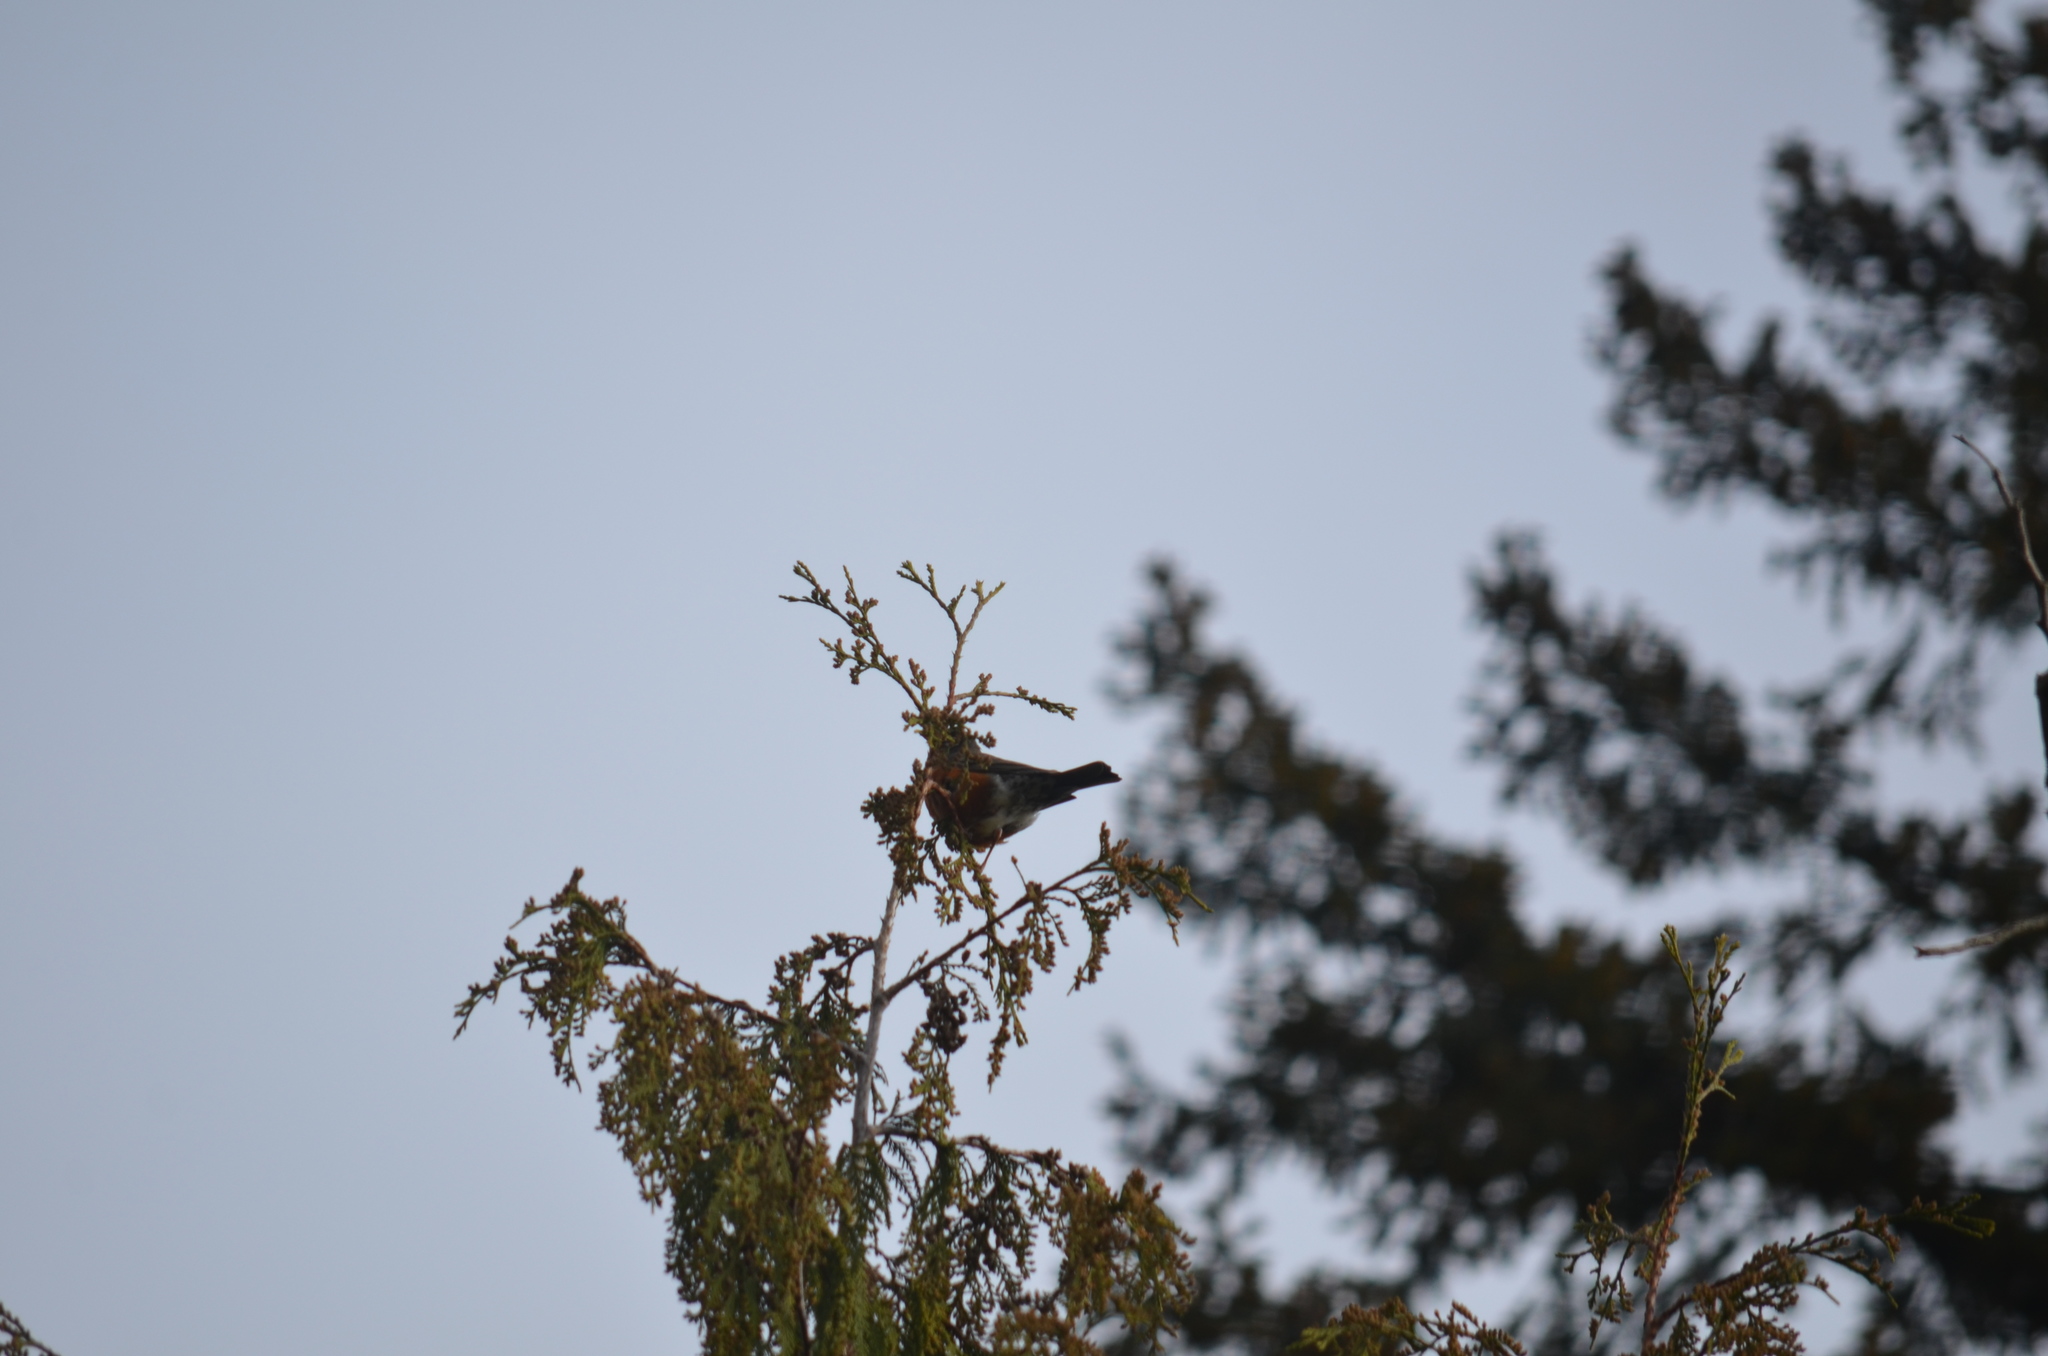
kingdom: Animalia
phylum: Chordata
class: Aves
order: Passeriformes
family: Turdidae
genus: Turdus
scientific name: Turdus migratorius
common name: American robin
